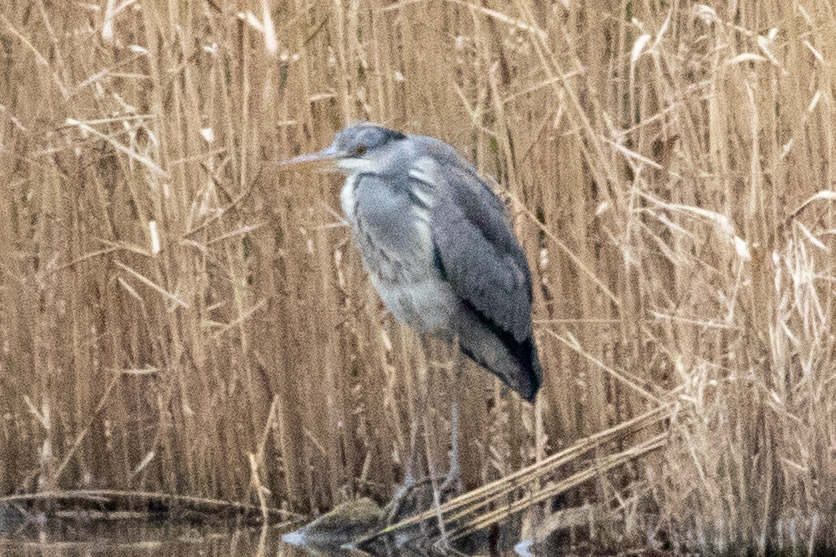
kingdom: Animalia
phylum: Chordata
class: Aves
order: Pelecaniformes
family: Ardeidae
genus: Ardea
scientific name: Ardea cinerea
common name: Grey heron
